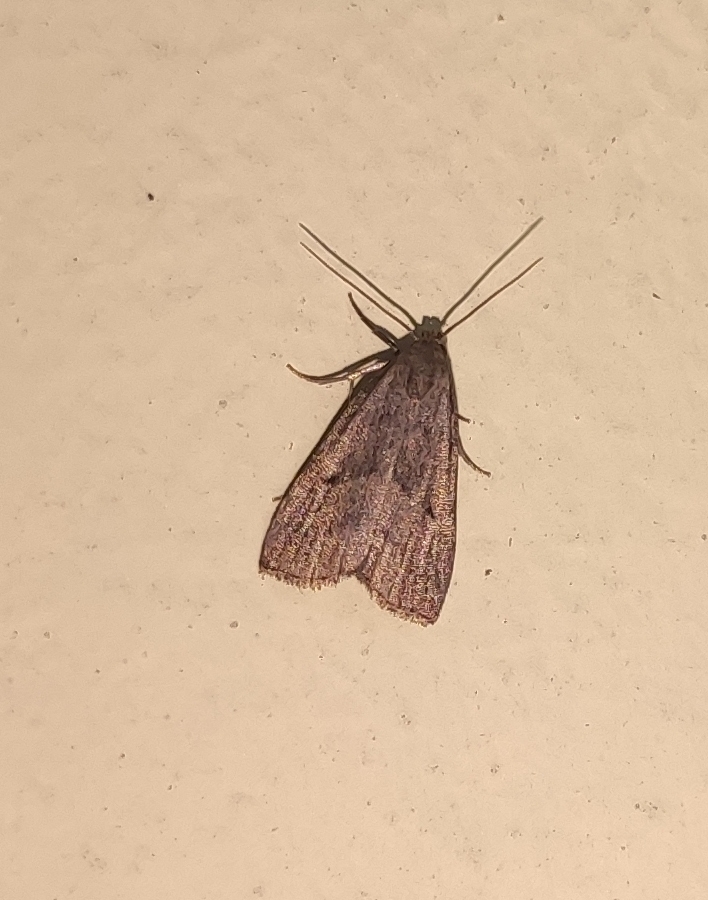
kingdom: Animalia
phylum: Arthropoda
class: Insecta
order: Lepidoptera
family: Erebidae
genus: Hypenodes
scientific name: Hypenodes humidalis
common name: Marsh oblique-barred
